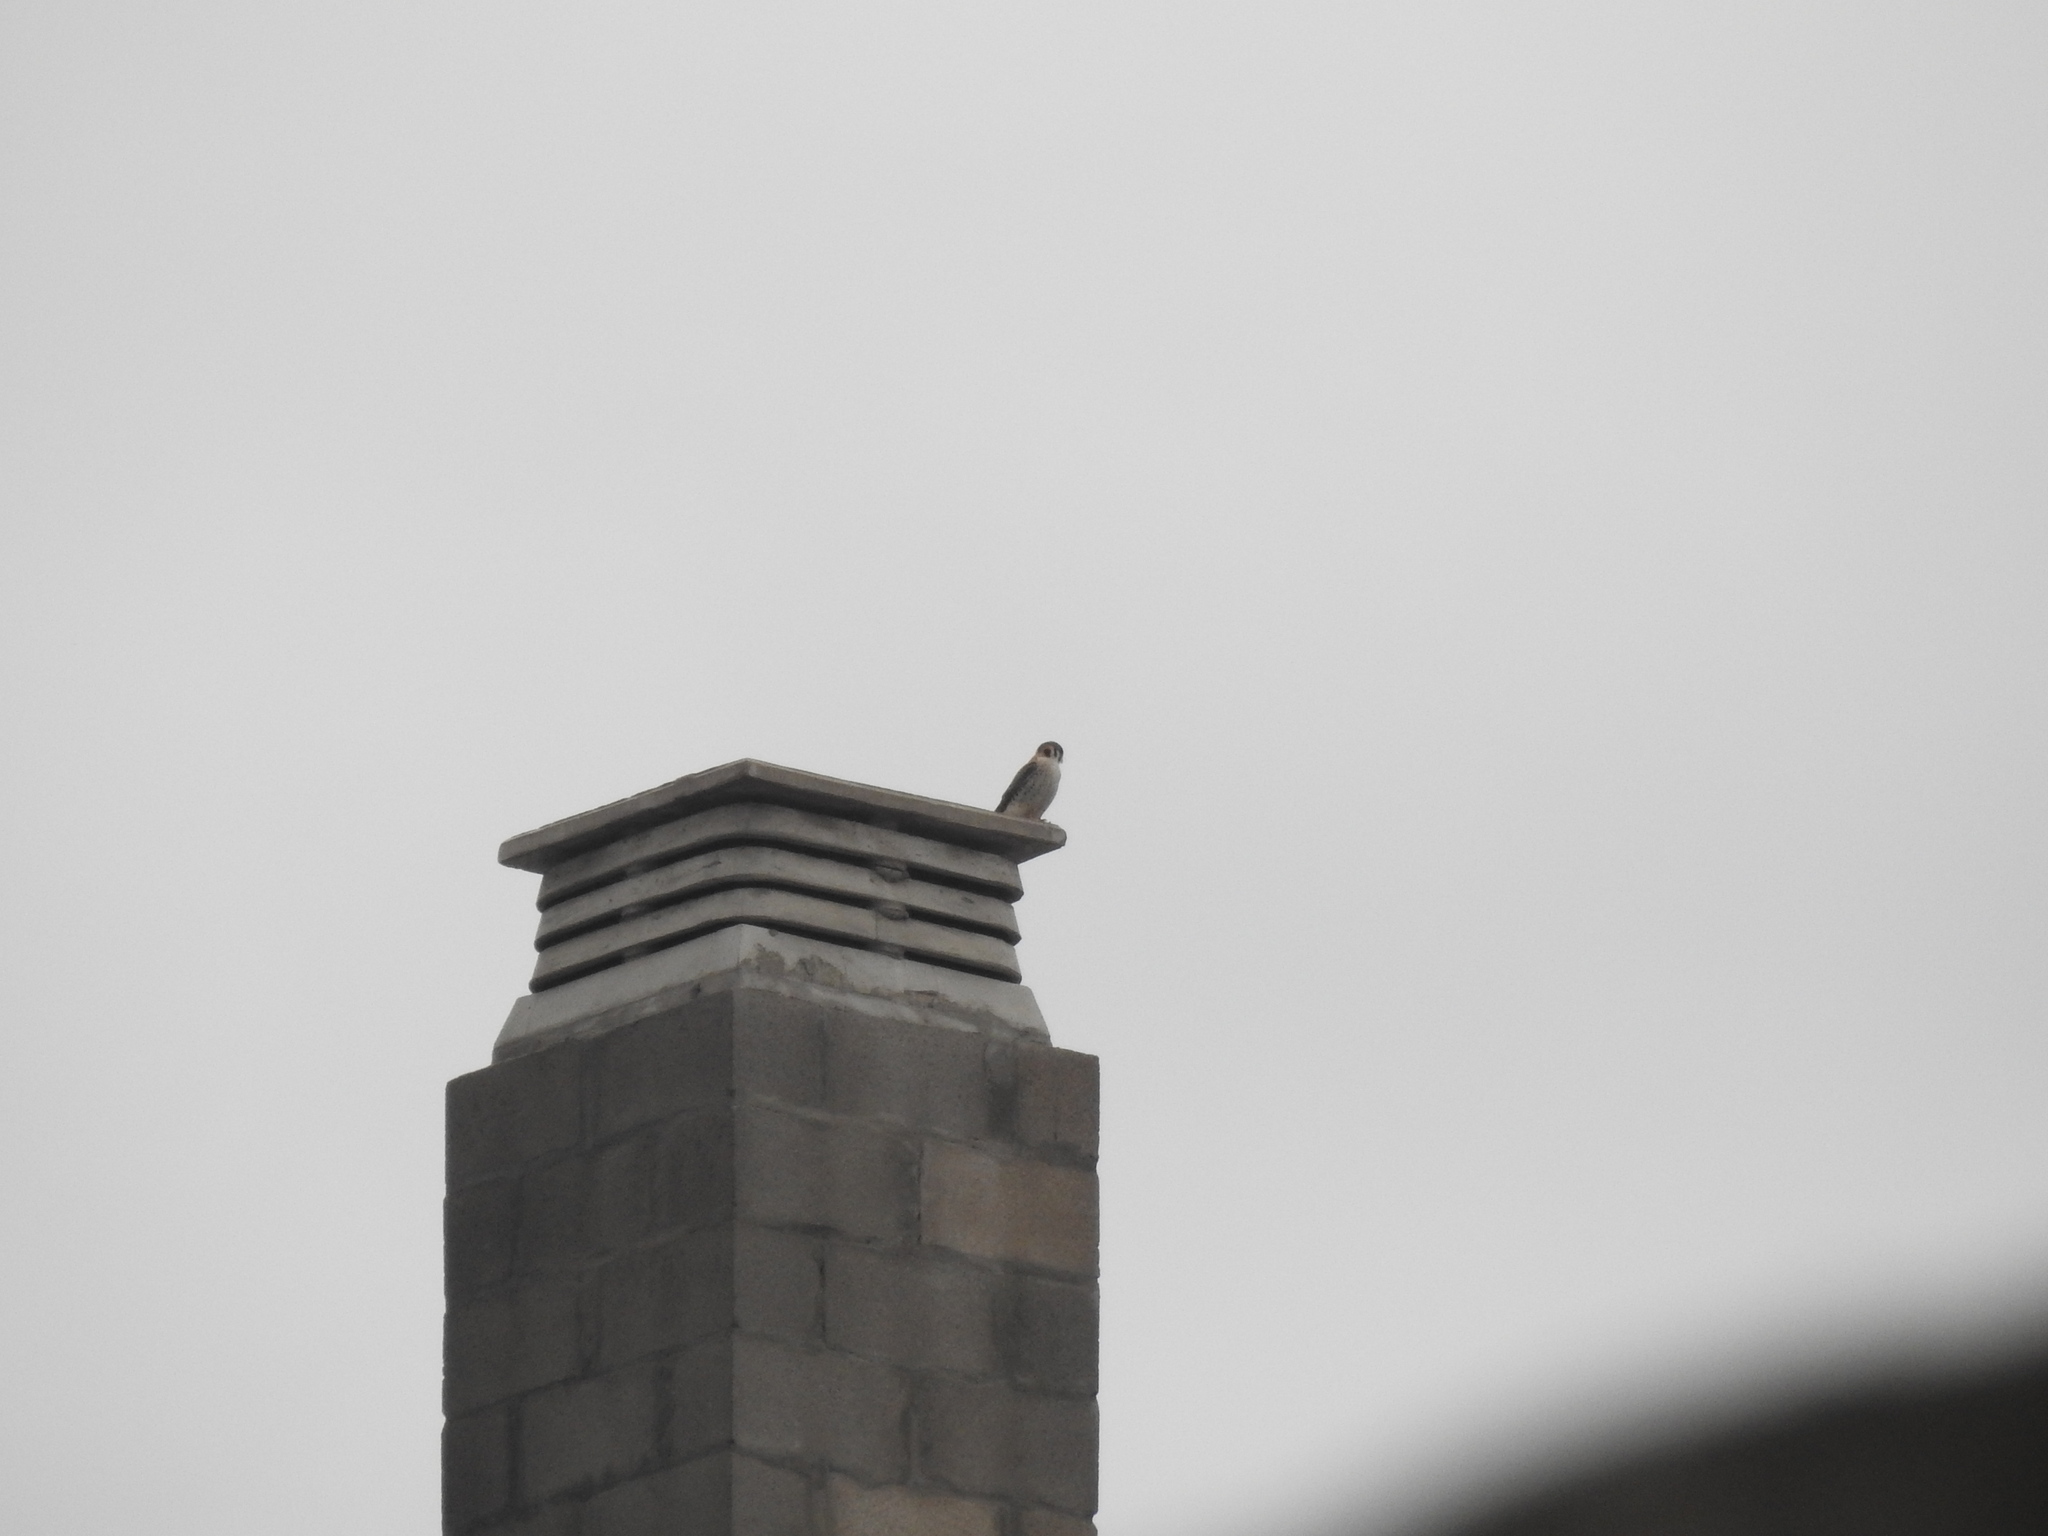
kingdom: Animalia
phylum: Chordata
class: Aves
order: Falconiformes
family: Falconidae
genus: Falco
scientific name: Falco sparverius
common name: American kestrel
